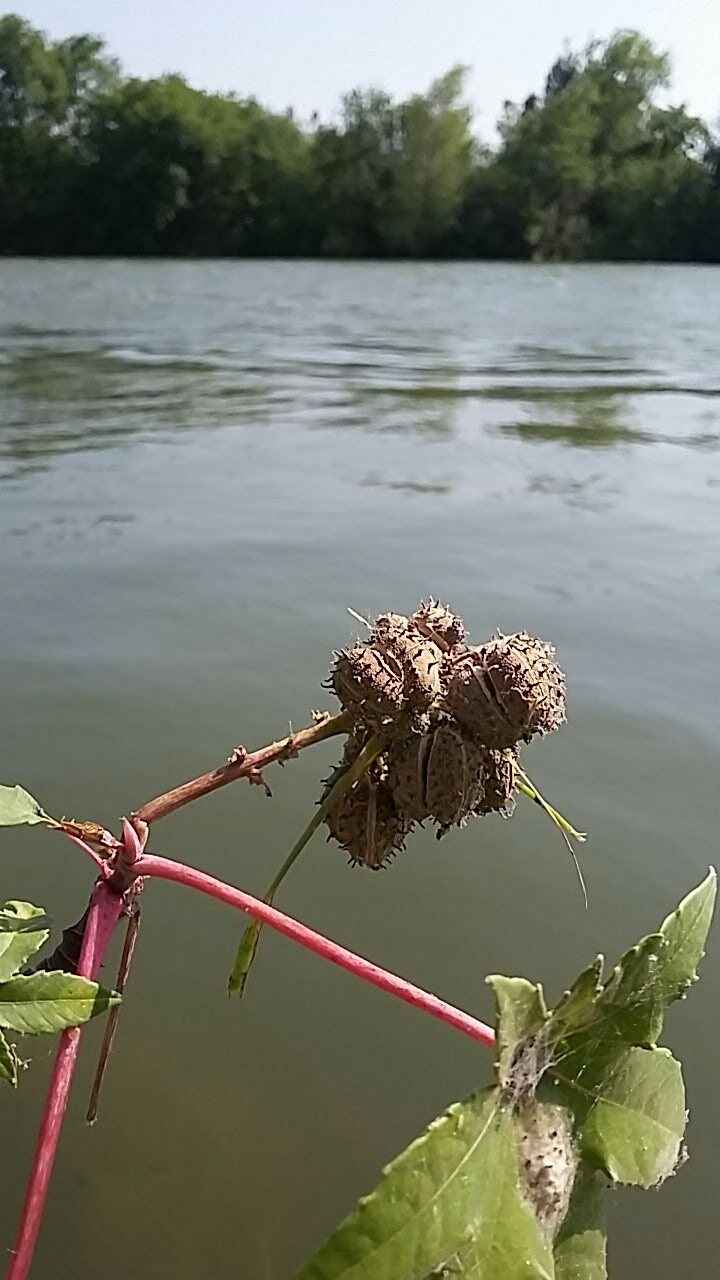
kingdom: Plantae
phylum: Tracheophyta
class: Magnoliopsida
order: Malpighiales
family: Euphorbiaceae
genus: Ricinus
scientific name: Ricinus communis
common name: Castor-oil-plant
